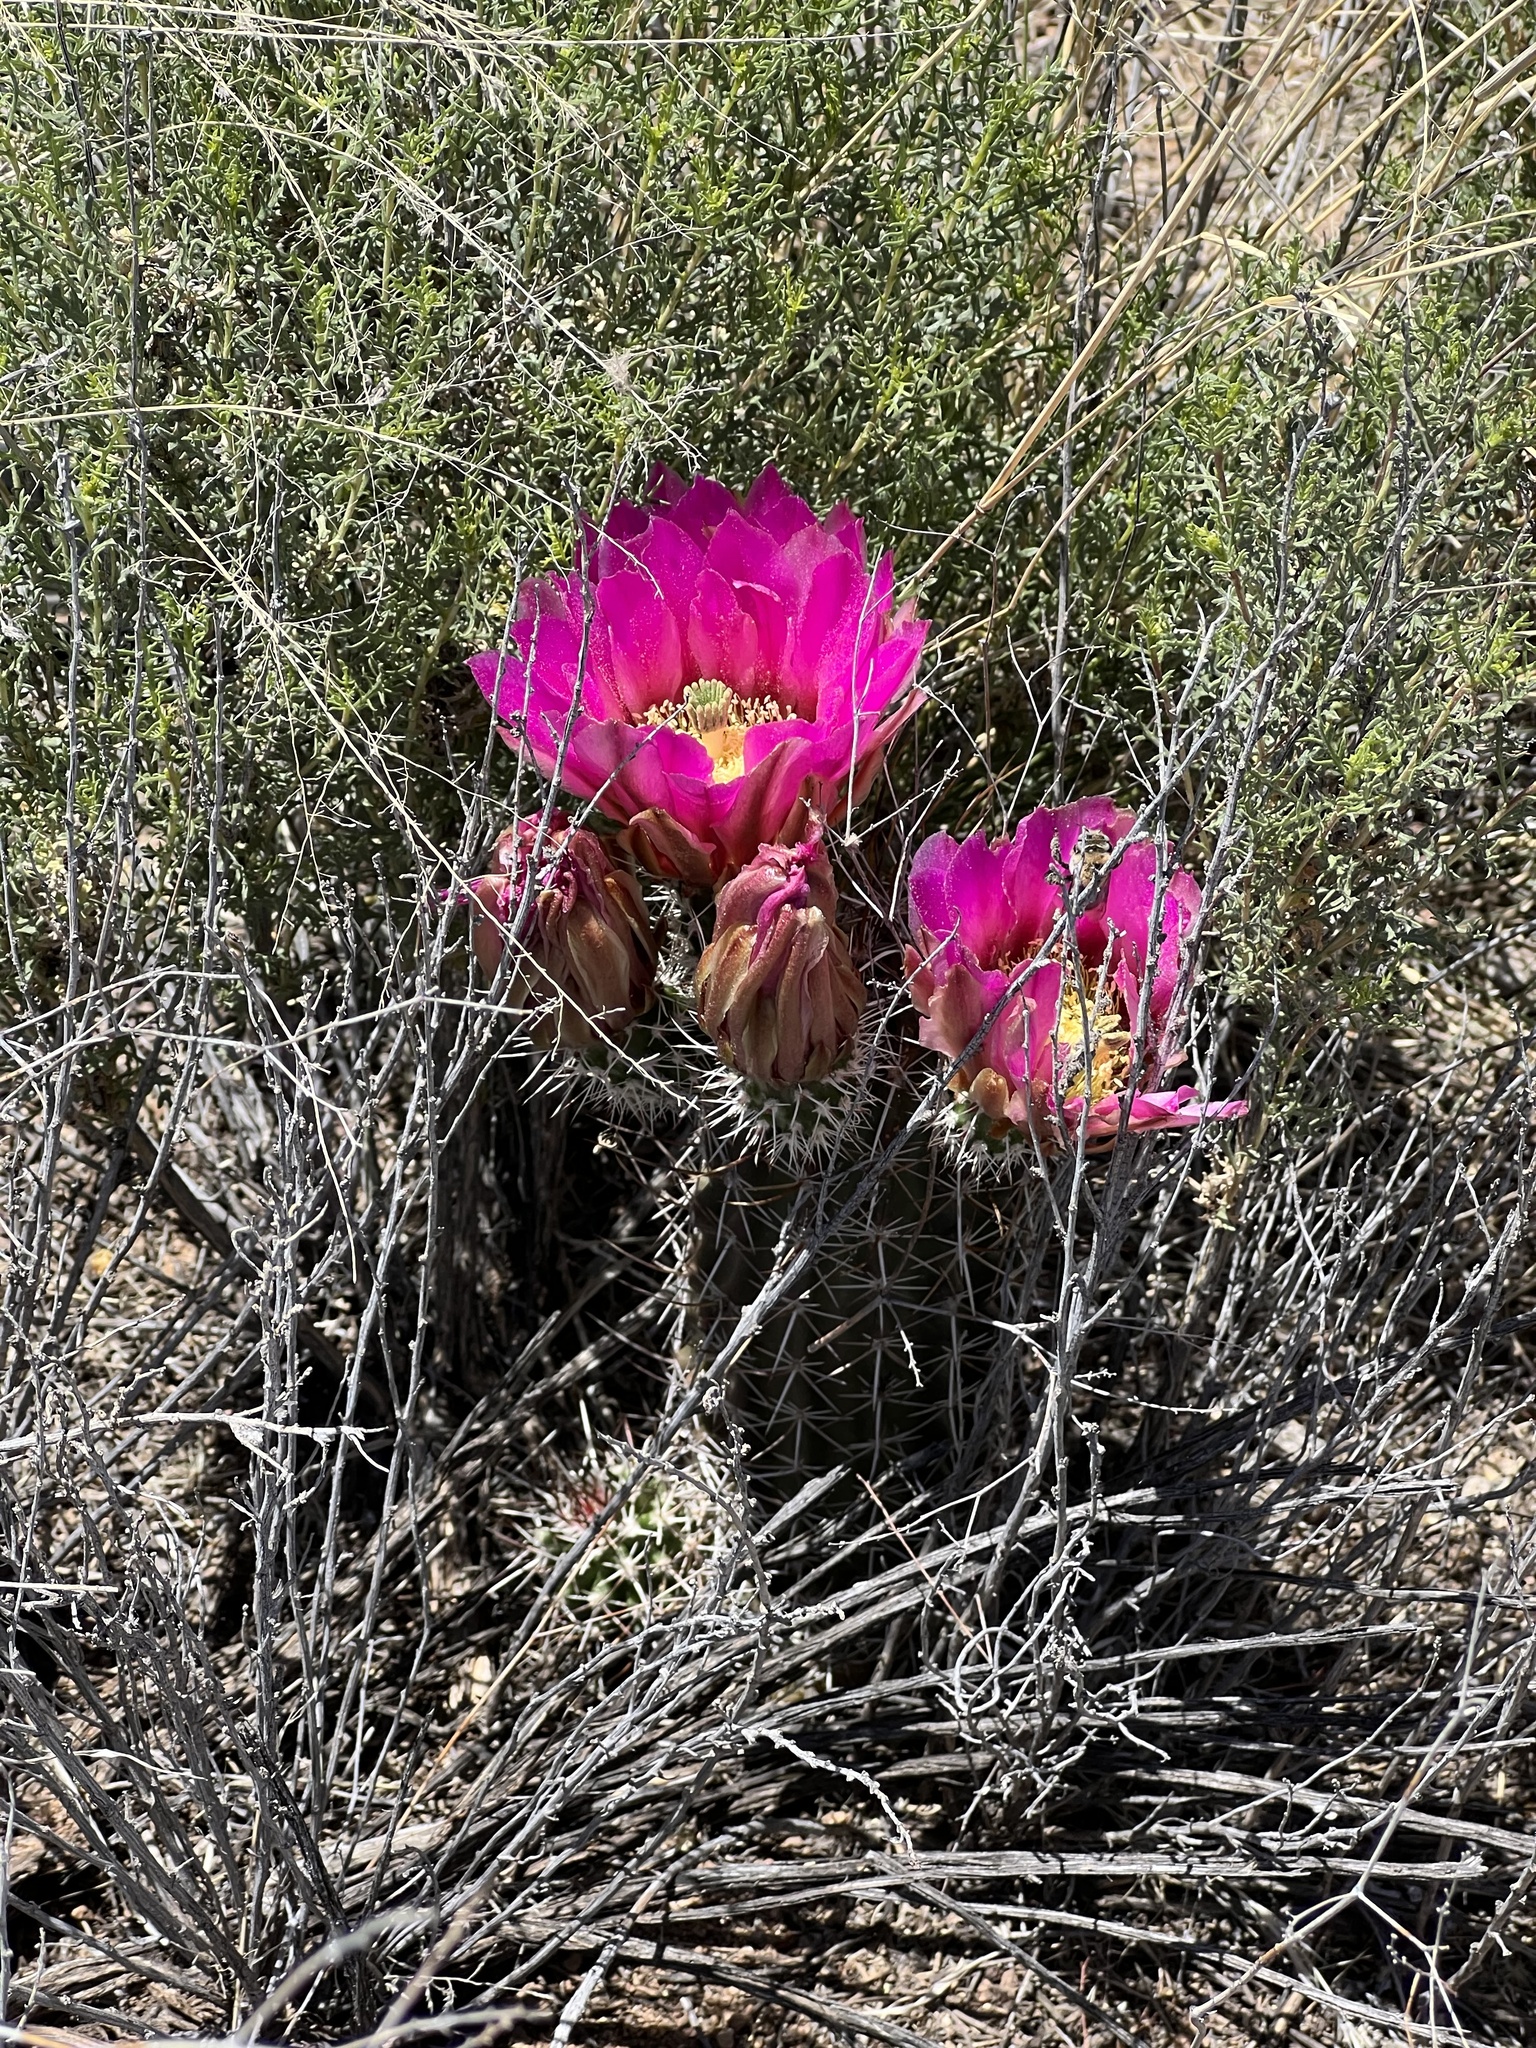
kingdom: Plantae
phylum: Tracheophyta
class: Magnoliopsida
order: Caryophyllales
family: Cactaceae
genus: Echinocereus
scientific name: Echinocereus fendleri
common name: Fendler's hedgehog cactus
